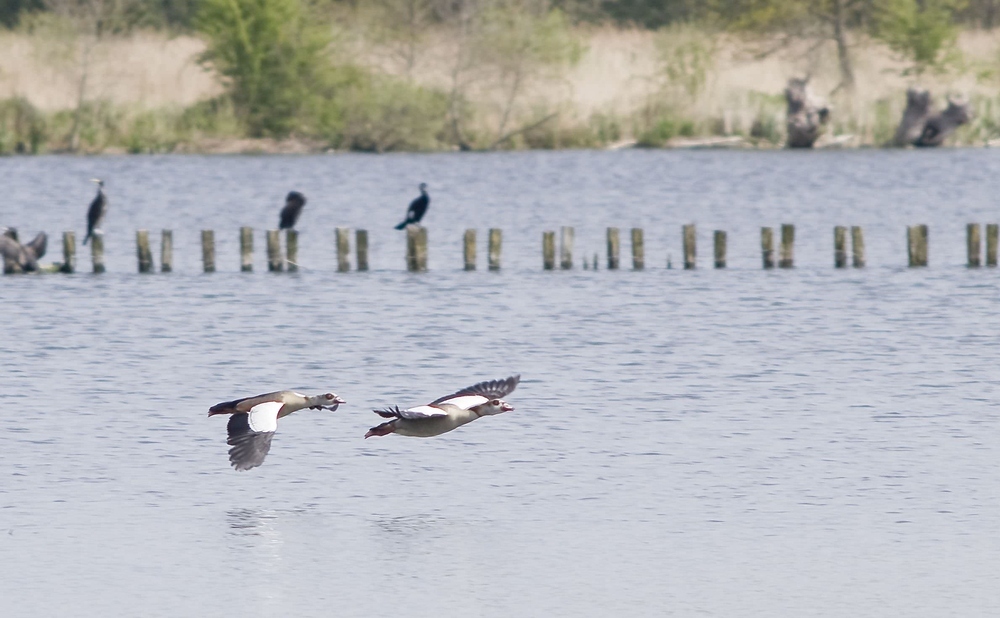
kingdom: Animalia
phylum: Chordata
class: Aves
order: Anseriformes
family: Anatidae
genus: Alopochen
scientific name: Alopochen aegyptiaca
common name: Egyptian goose
